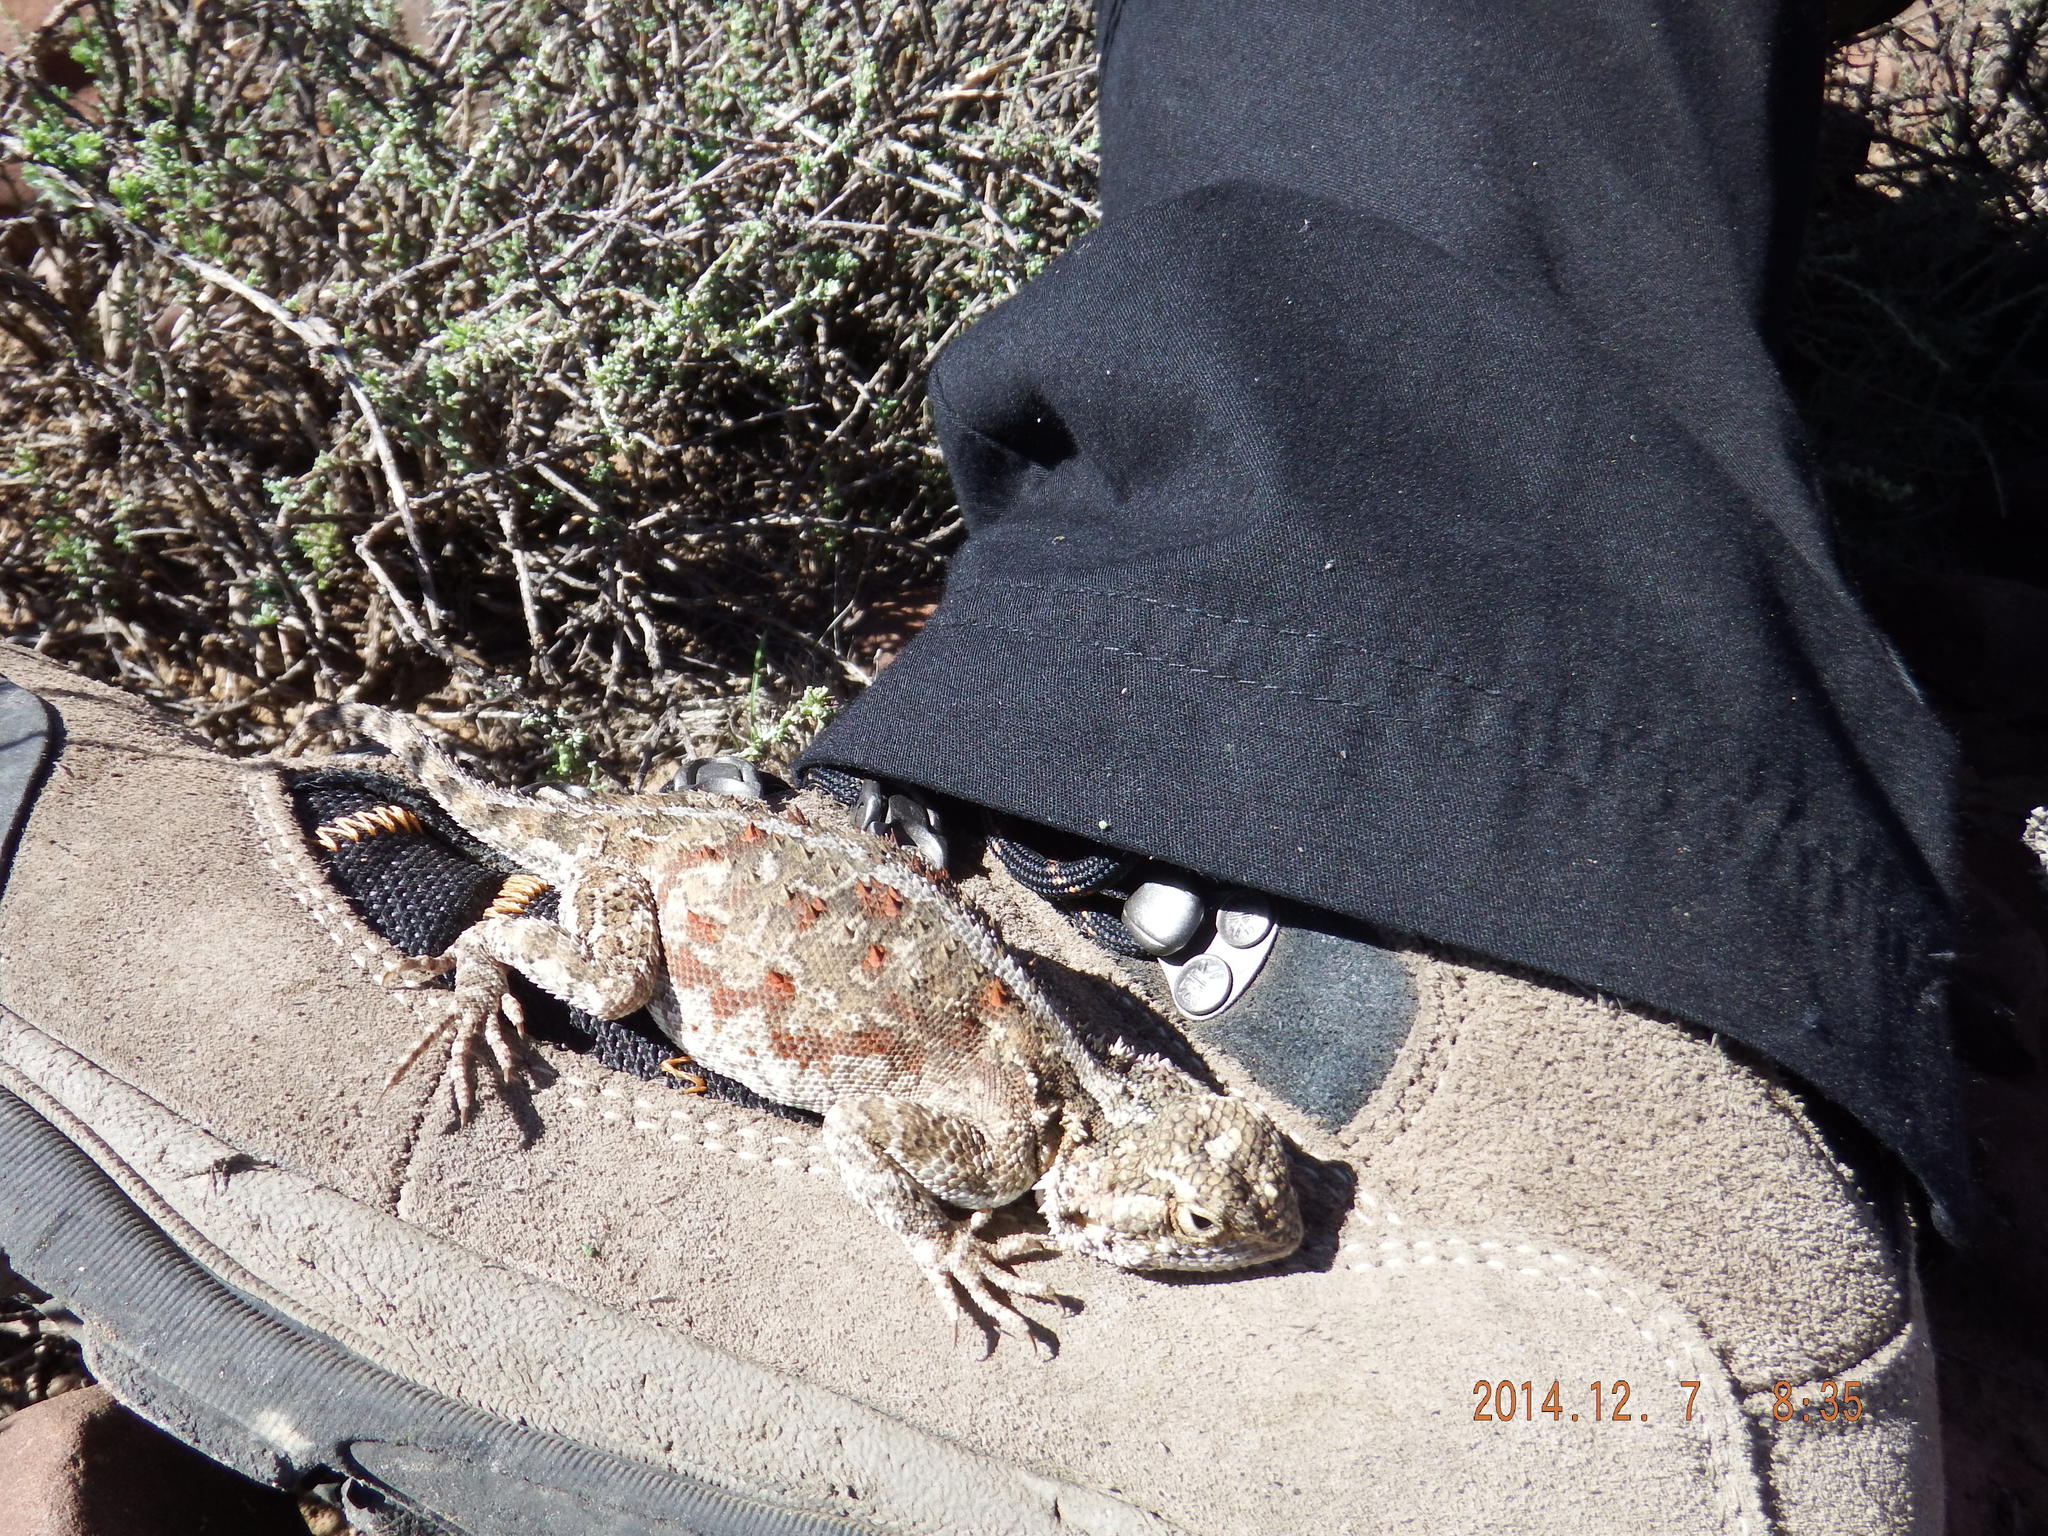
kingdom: Animalia
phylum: Chordata
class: Squamata
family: Agamidae
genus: Agama
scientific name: Agama aculeata
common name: Common ground agama
